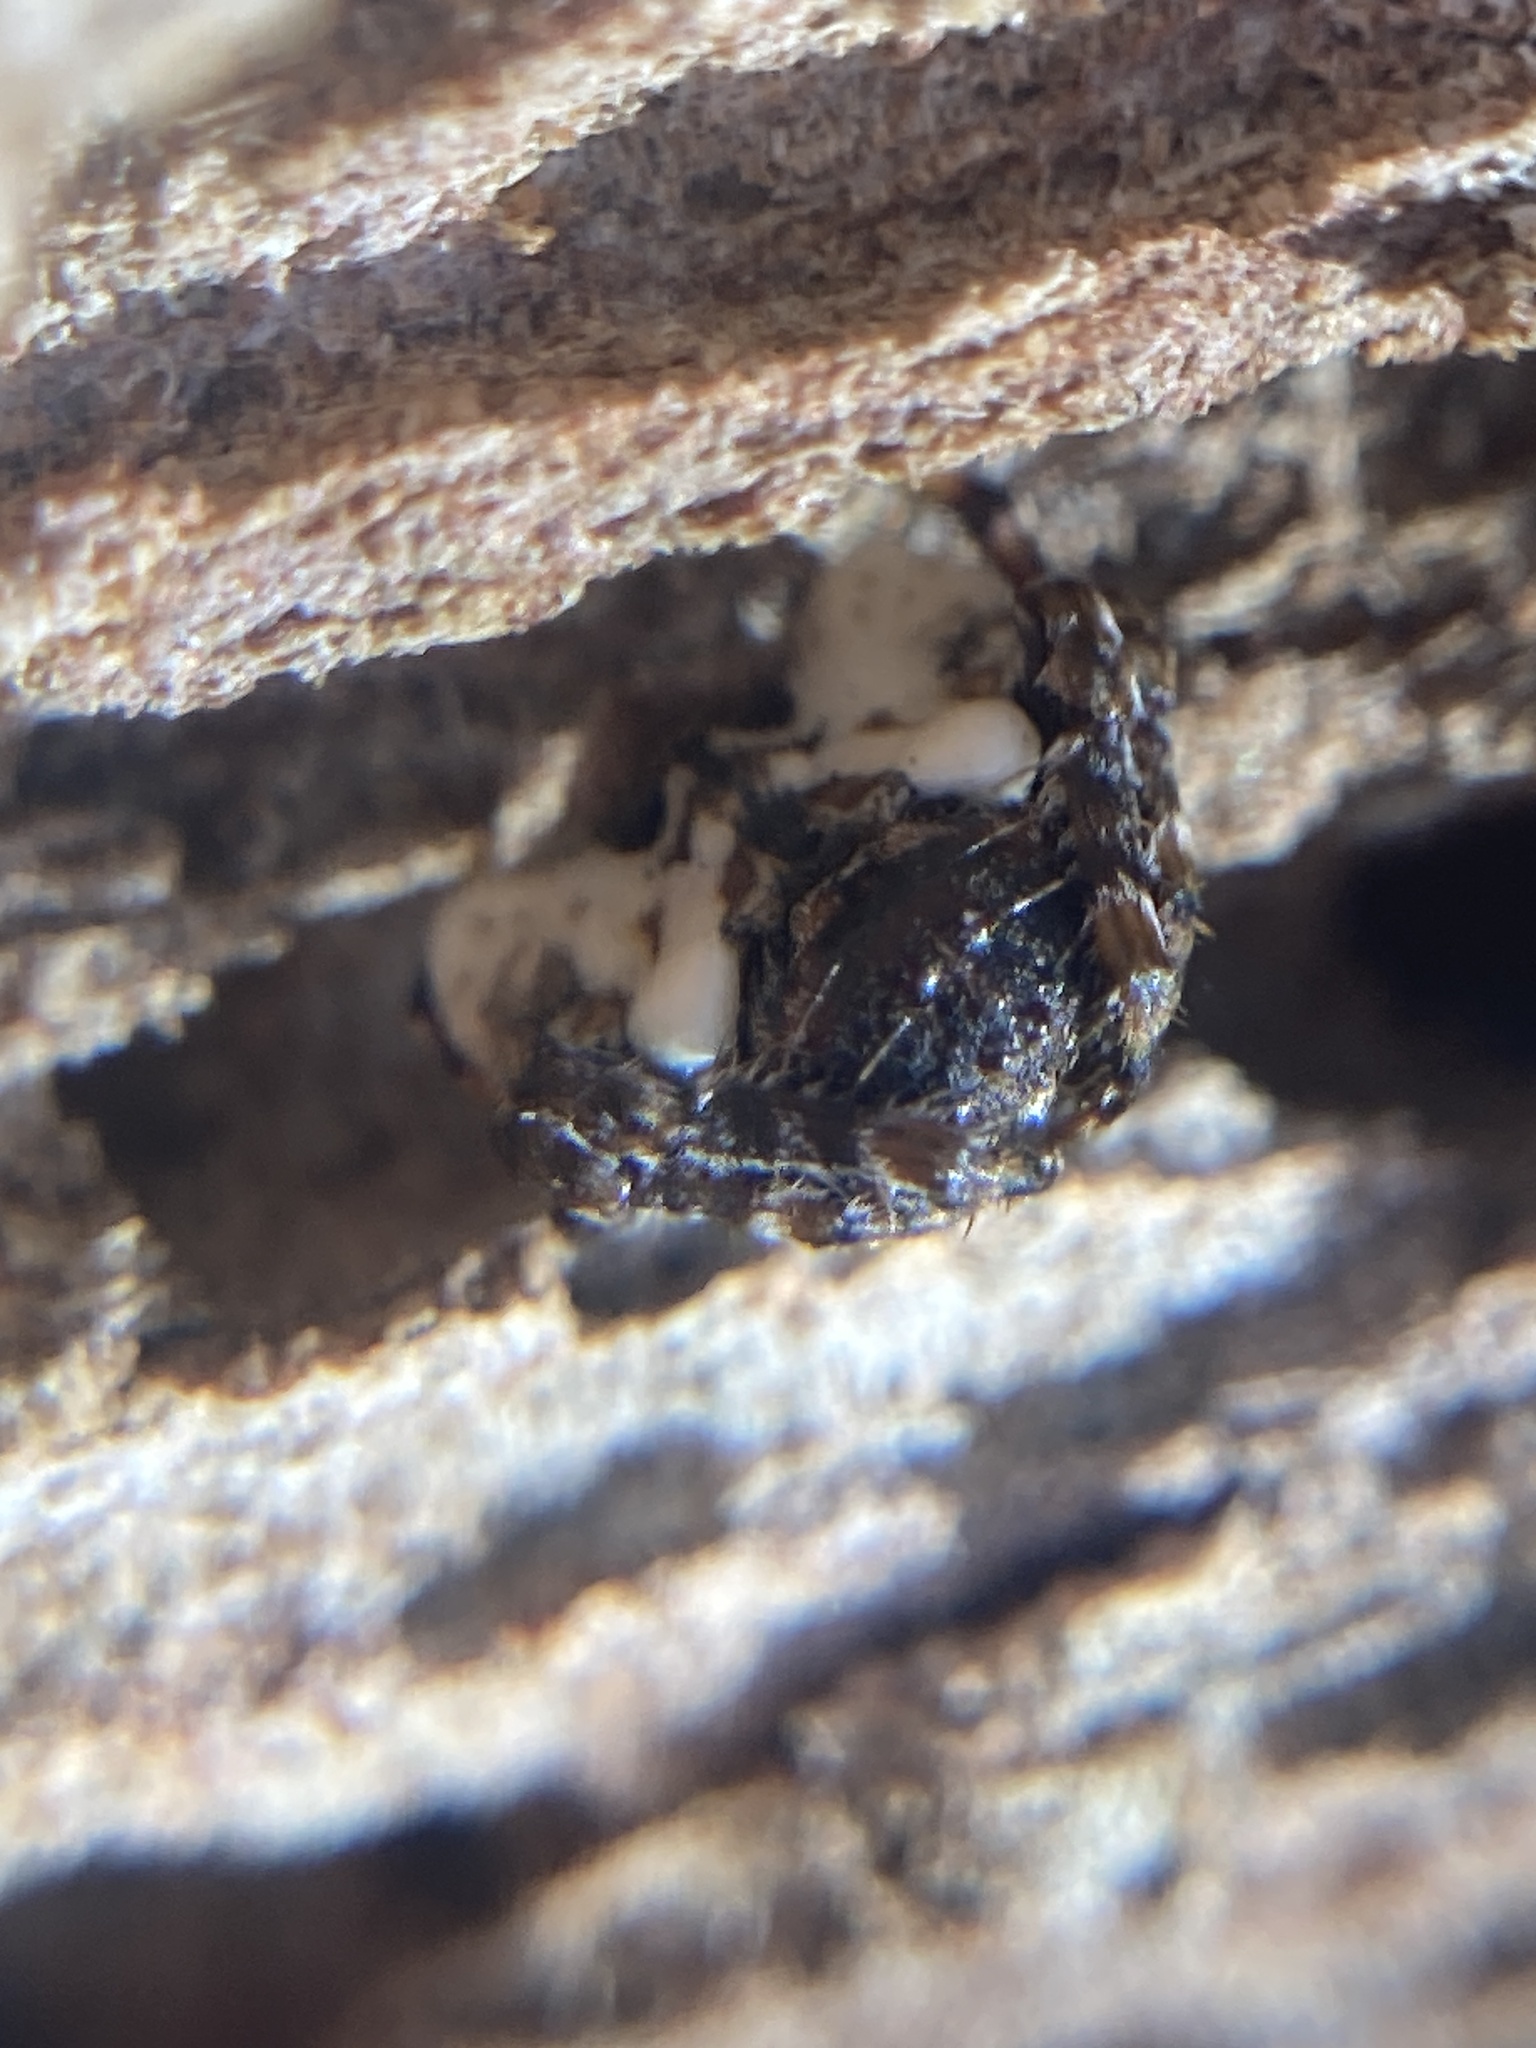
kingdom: Animalia
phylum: Arthropoda
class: Arachnida
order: Araneae
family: Arkyidae
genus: Arkys
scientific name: Arkys curtulus
